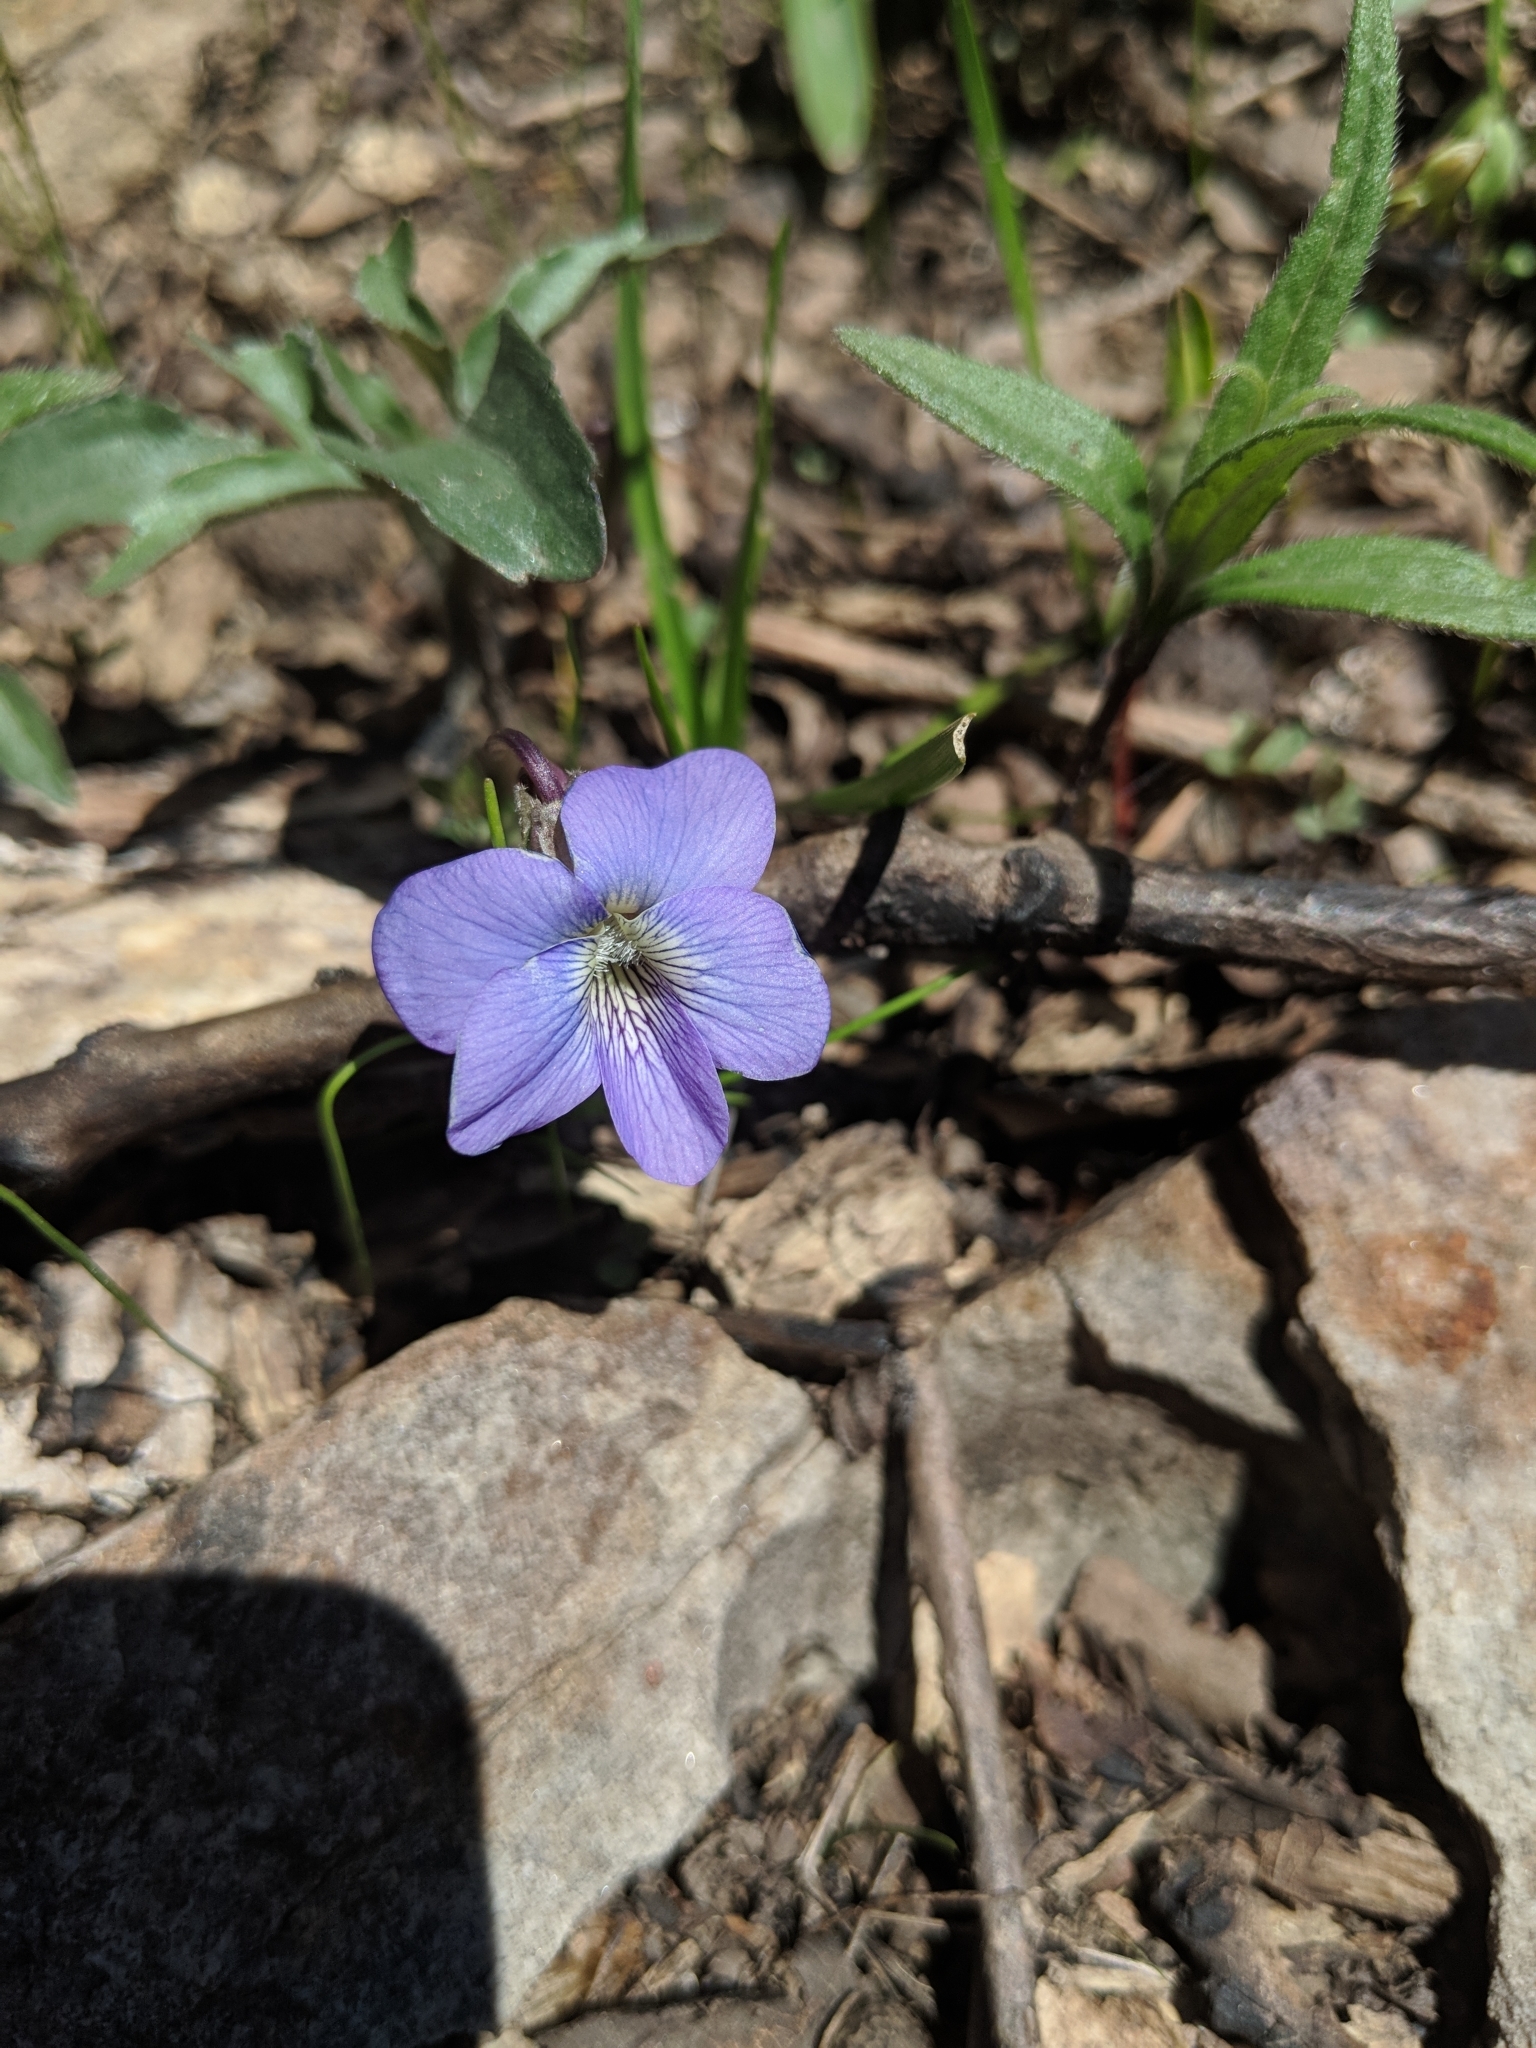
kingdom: Plantae
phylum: Tracheophyta
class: Magnoliopsida
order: Malpighiales
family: Violaceae
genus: Viola
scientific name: Viola palmata
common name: Early blue violet
